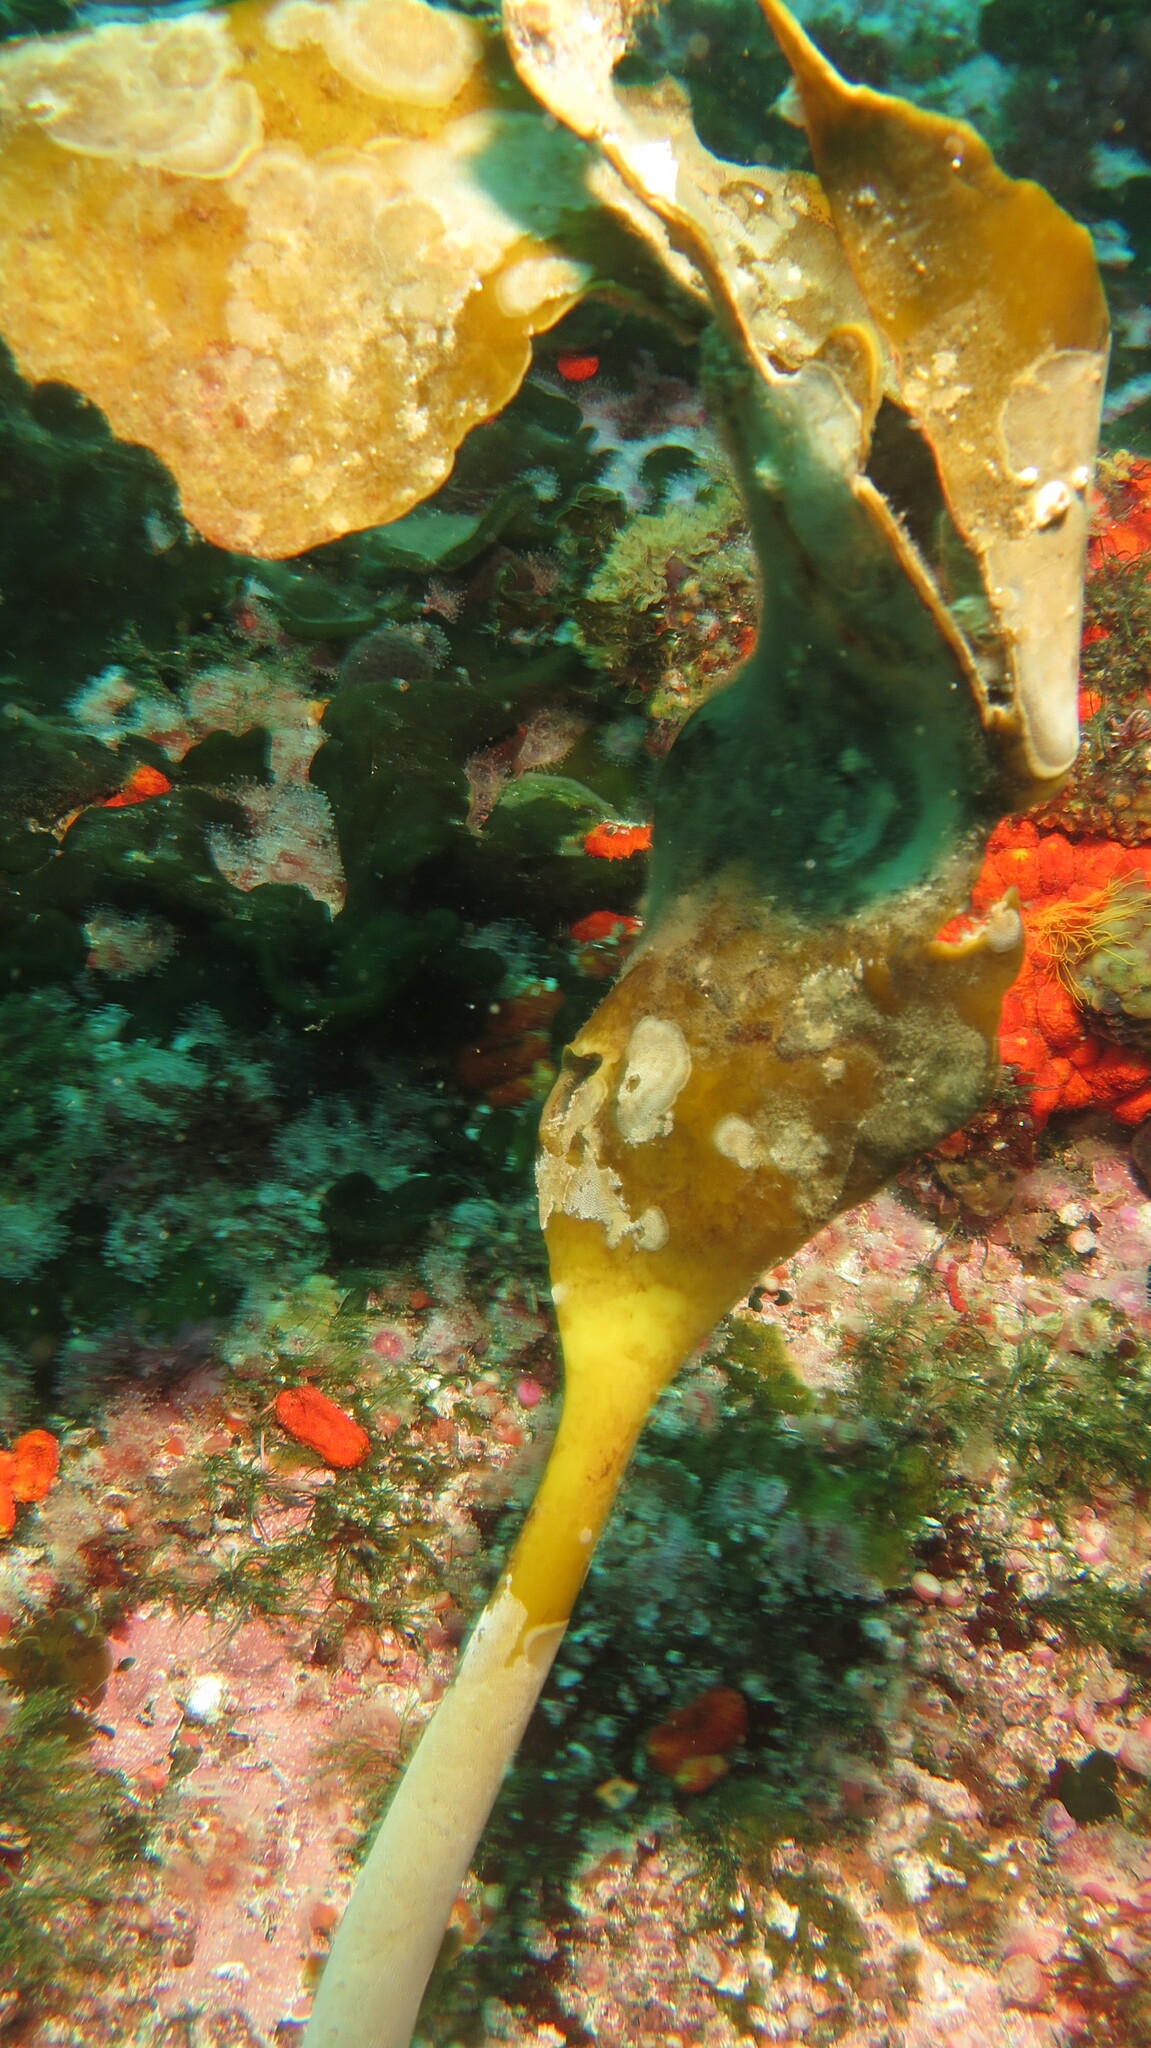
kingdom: Chromista
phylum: Ochrophyta
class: Phaeophyceae
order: Laminariales
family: Lessoniaceae
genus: Ecklonia
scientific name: Ecklonia
